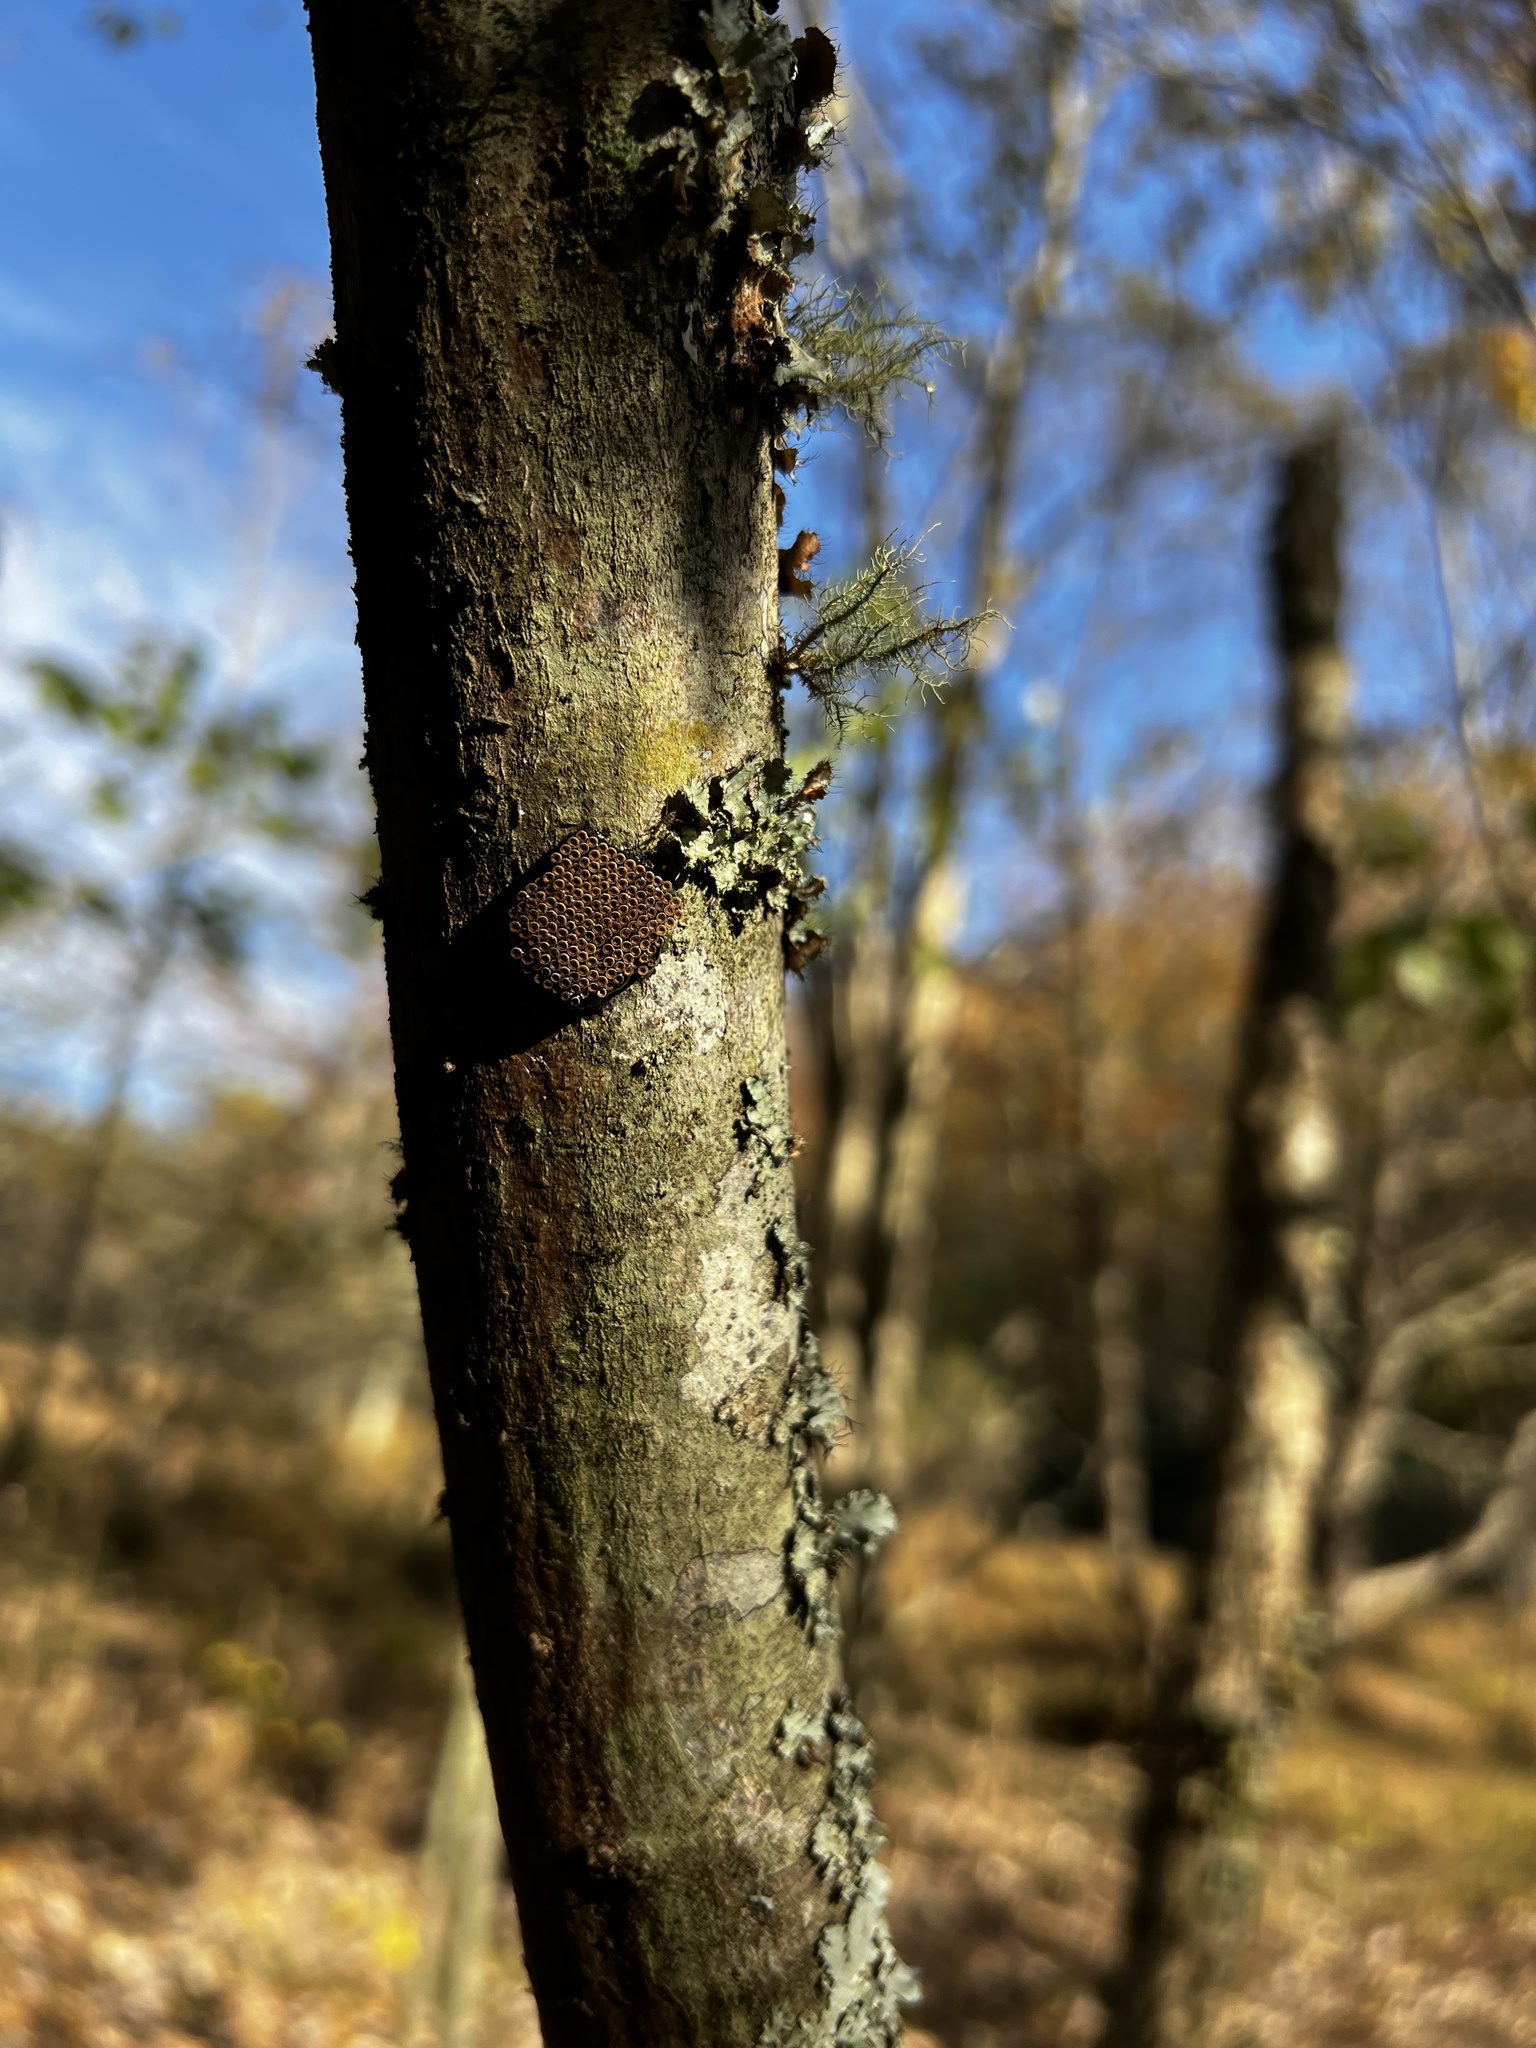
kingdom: Animalia
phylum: Arthropoda
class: Insecta
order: Hemiptera
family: Reduviidae
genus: Arilus
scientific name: Arilus cristatus
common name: North american wheel bug
